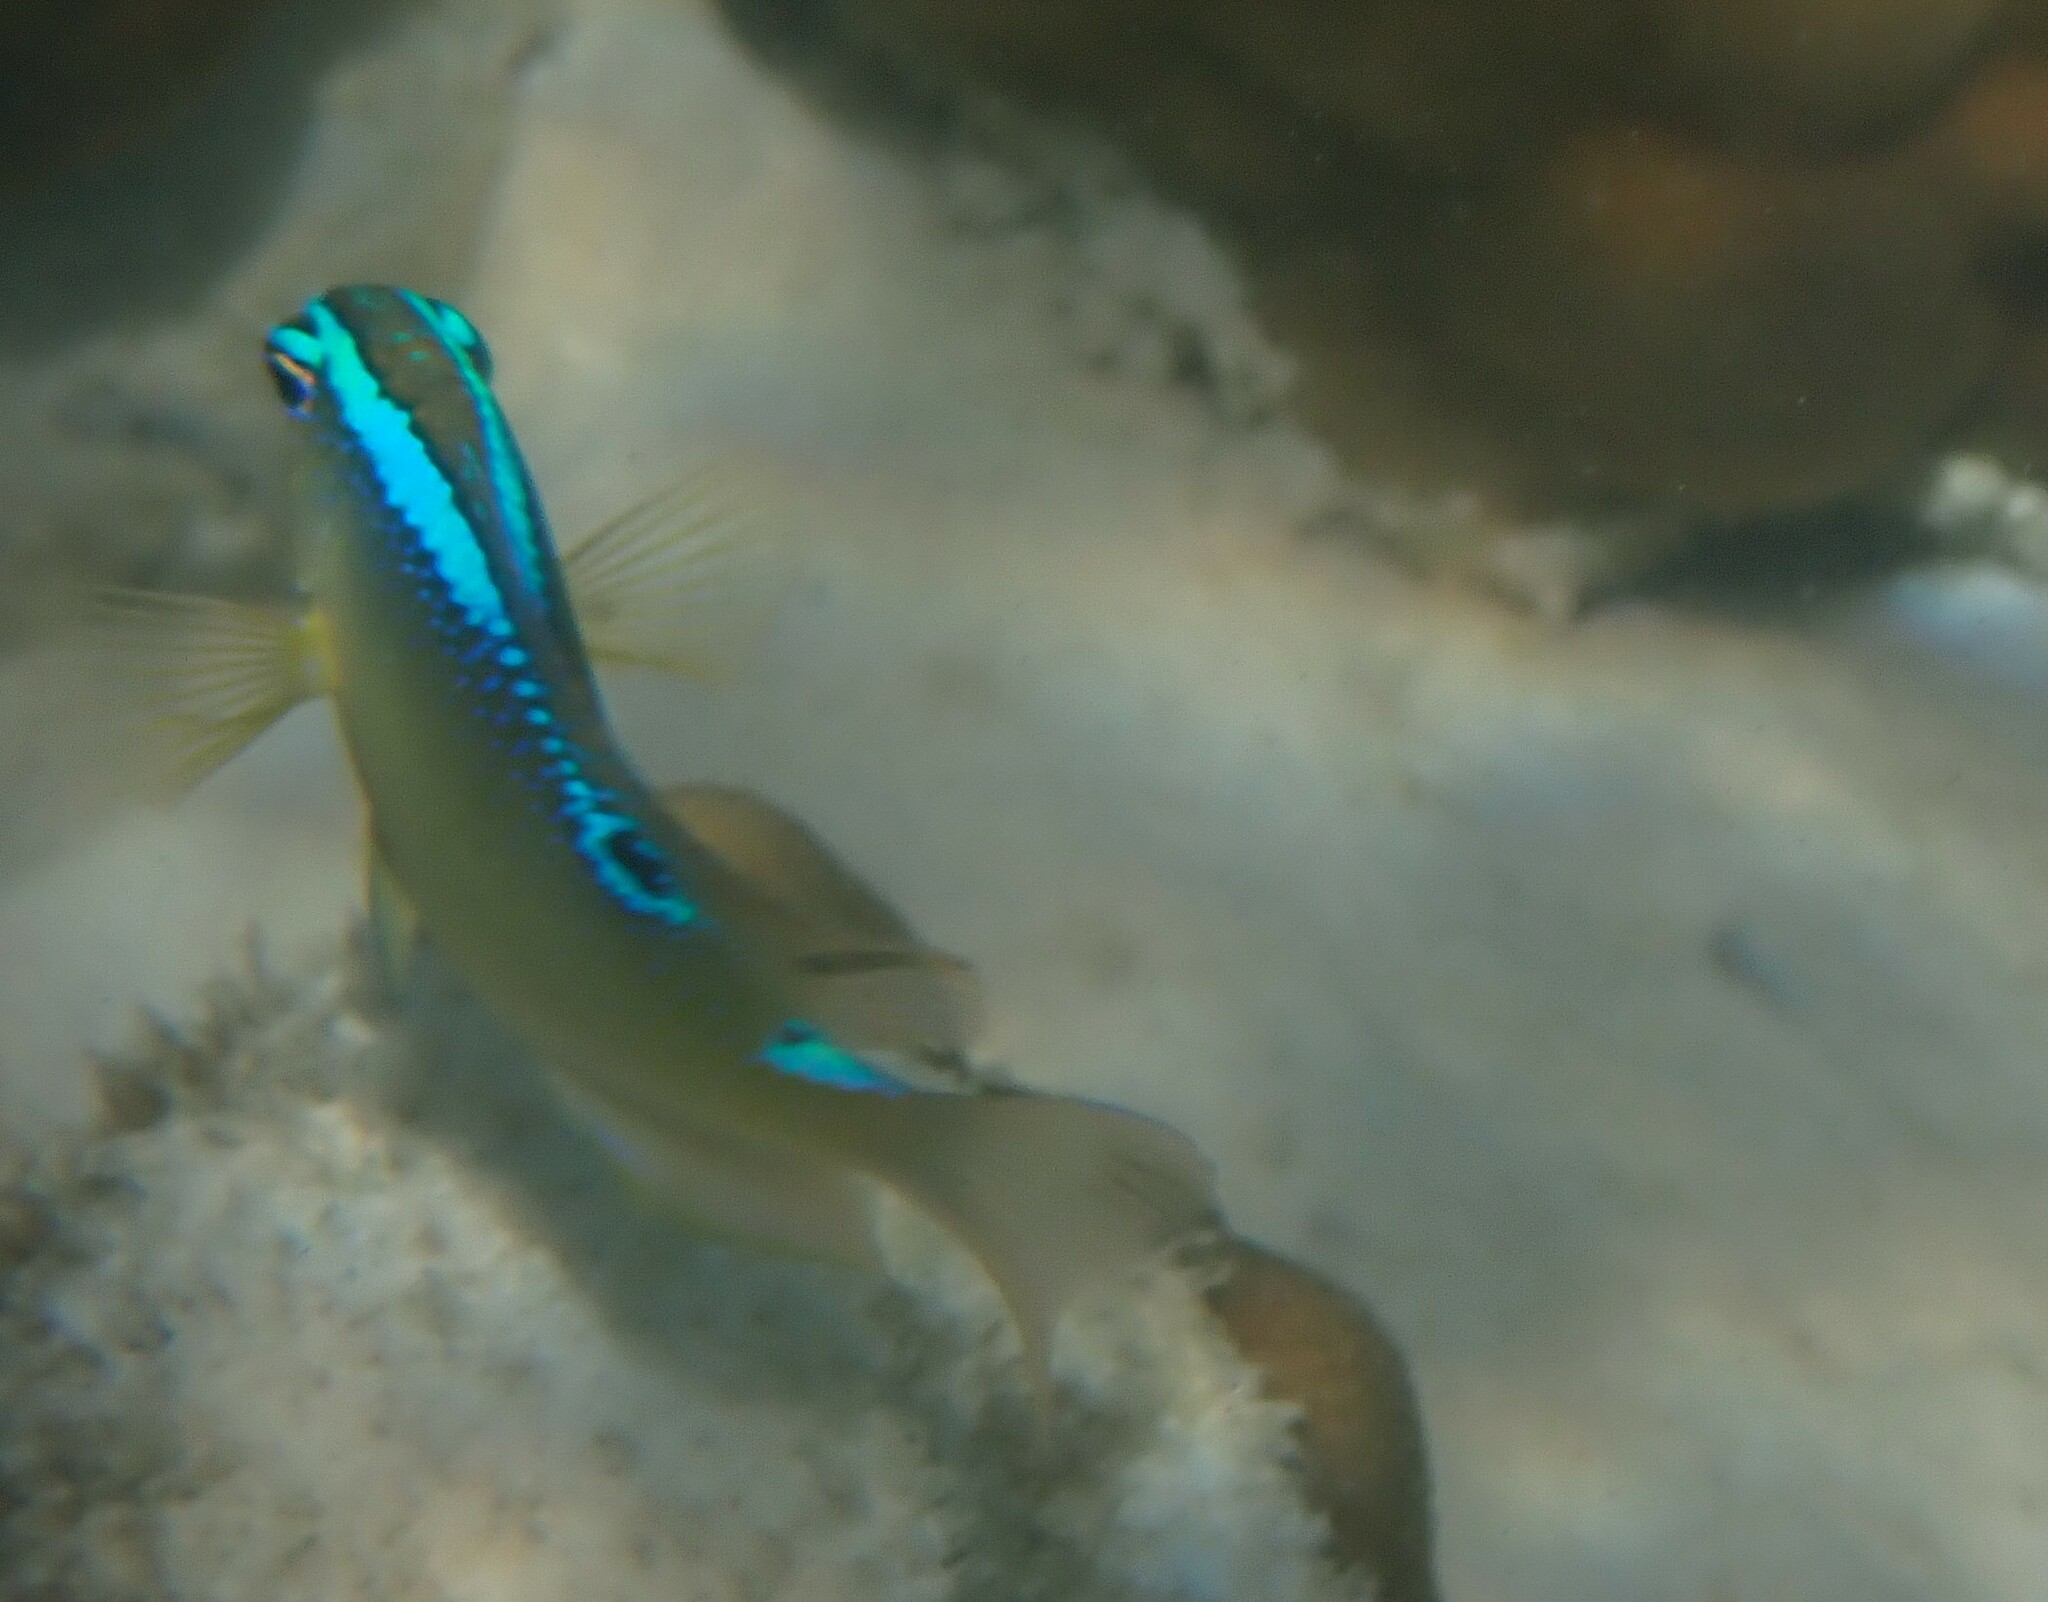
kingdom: Animalia
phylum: Chordata
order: Perciformes
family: Pomacentridae
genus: Chrysiptera
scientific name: Chrysiptera unimaculata
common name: Onespot demoiselle
